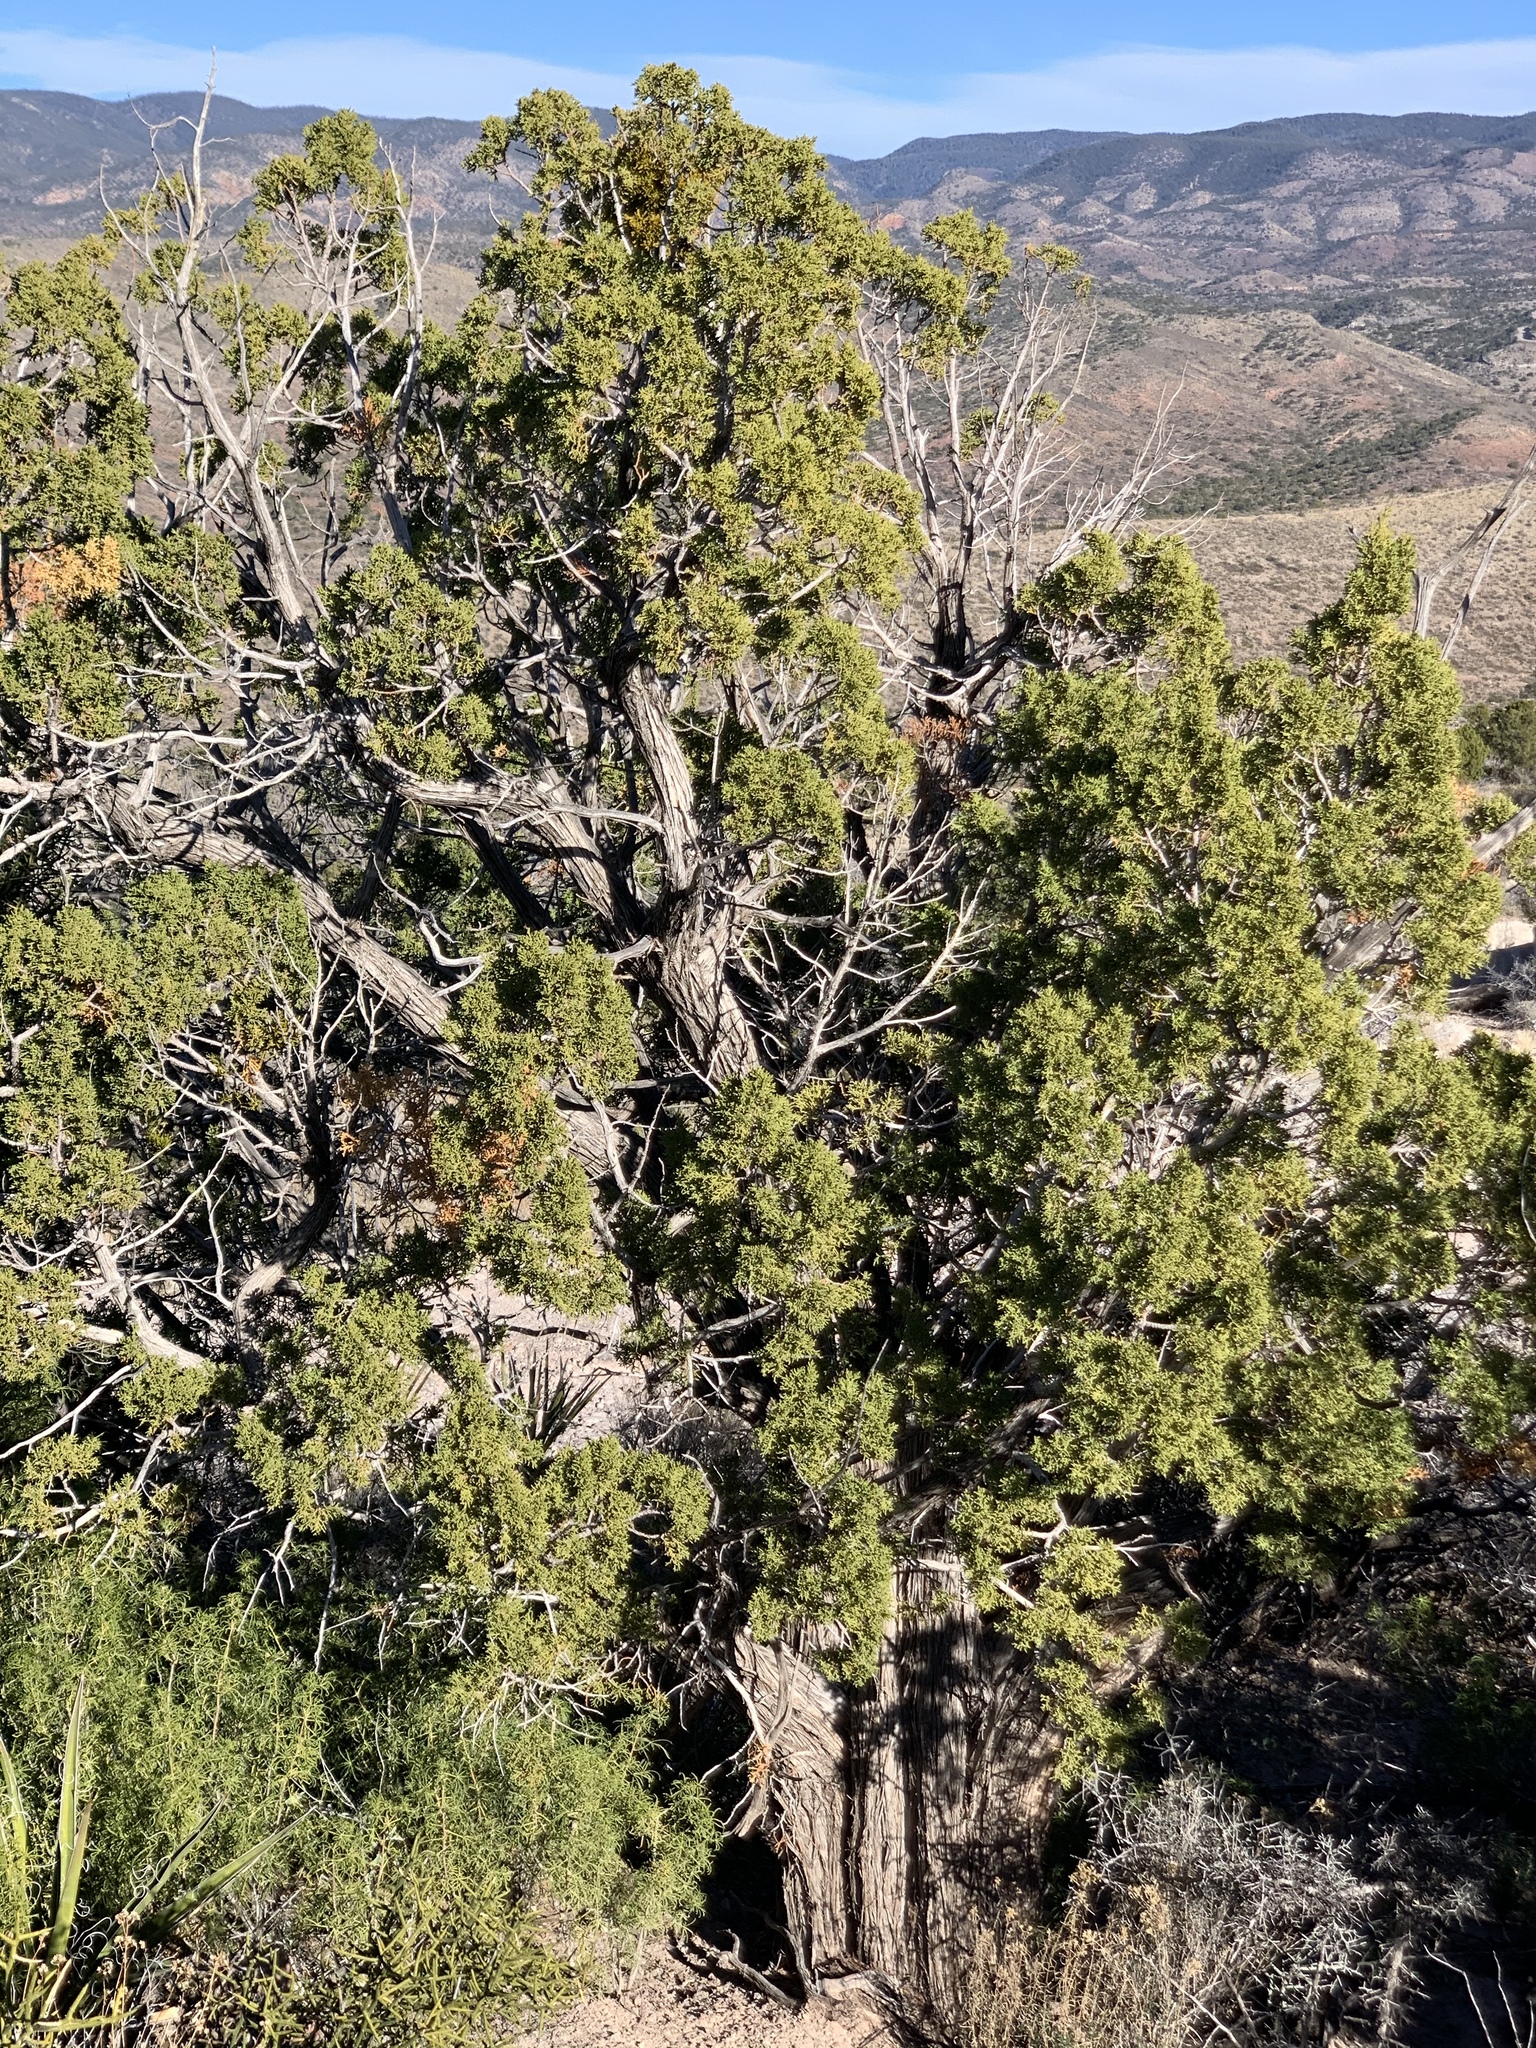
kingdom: Plantae
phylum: Tracheophyta
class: Pinopsida
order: Pinales
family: Cupressaceae
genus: Juniperus
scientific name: Juniperus monosperma
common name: One-seed juniper
